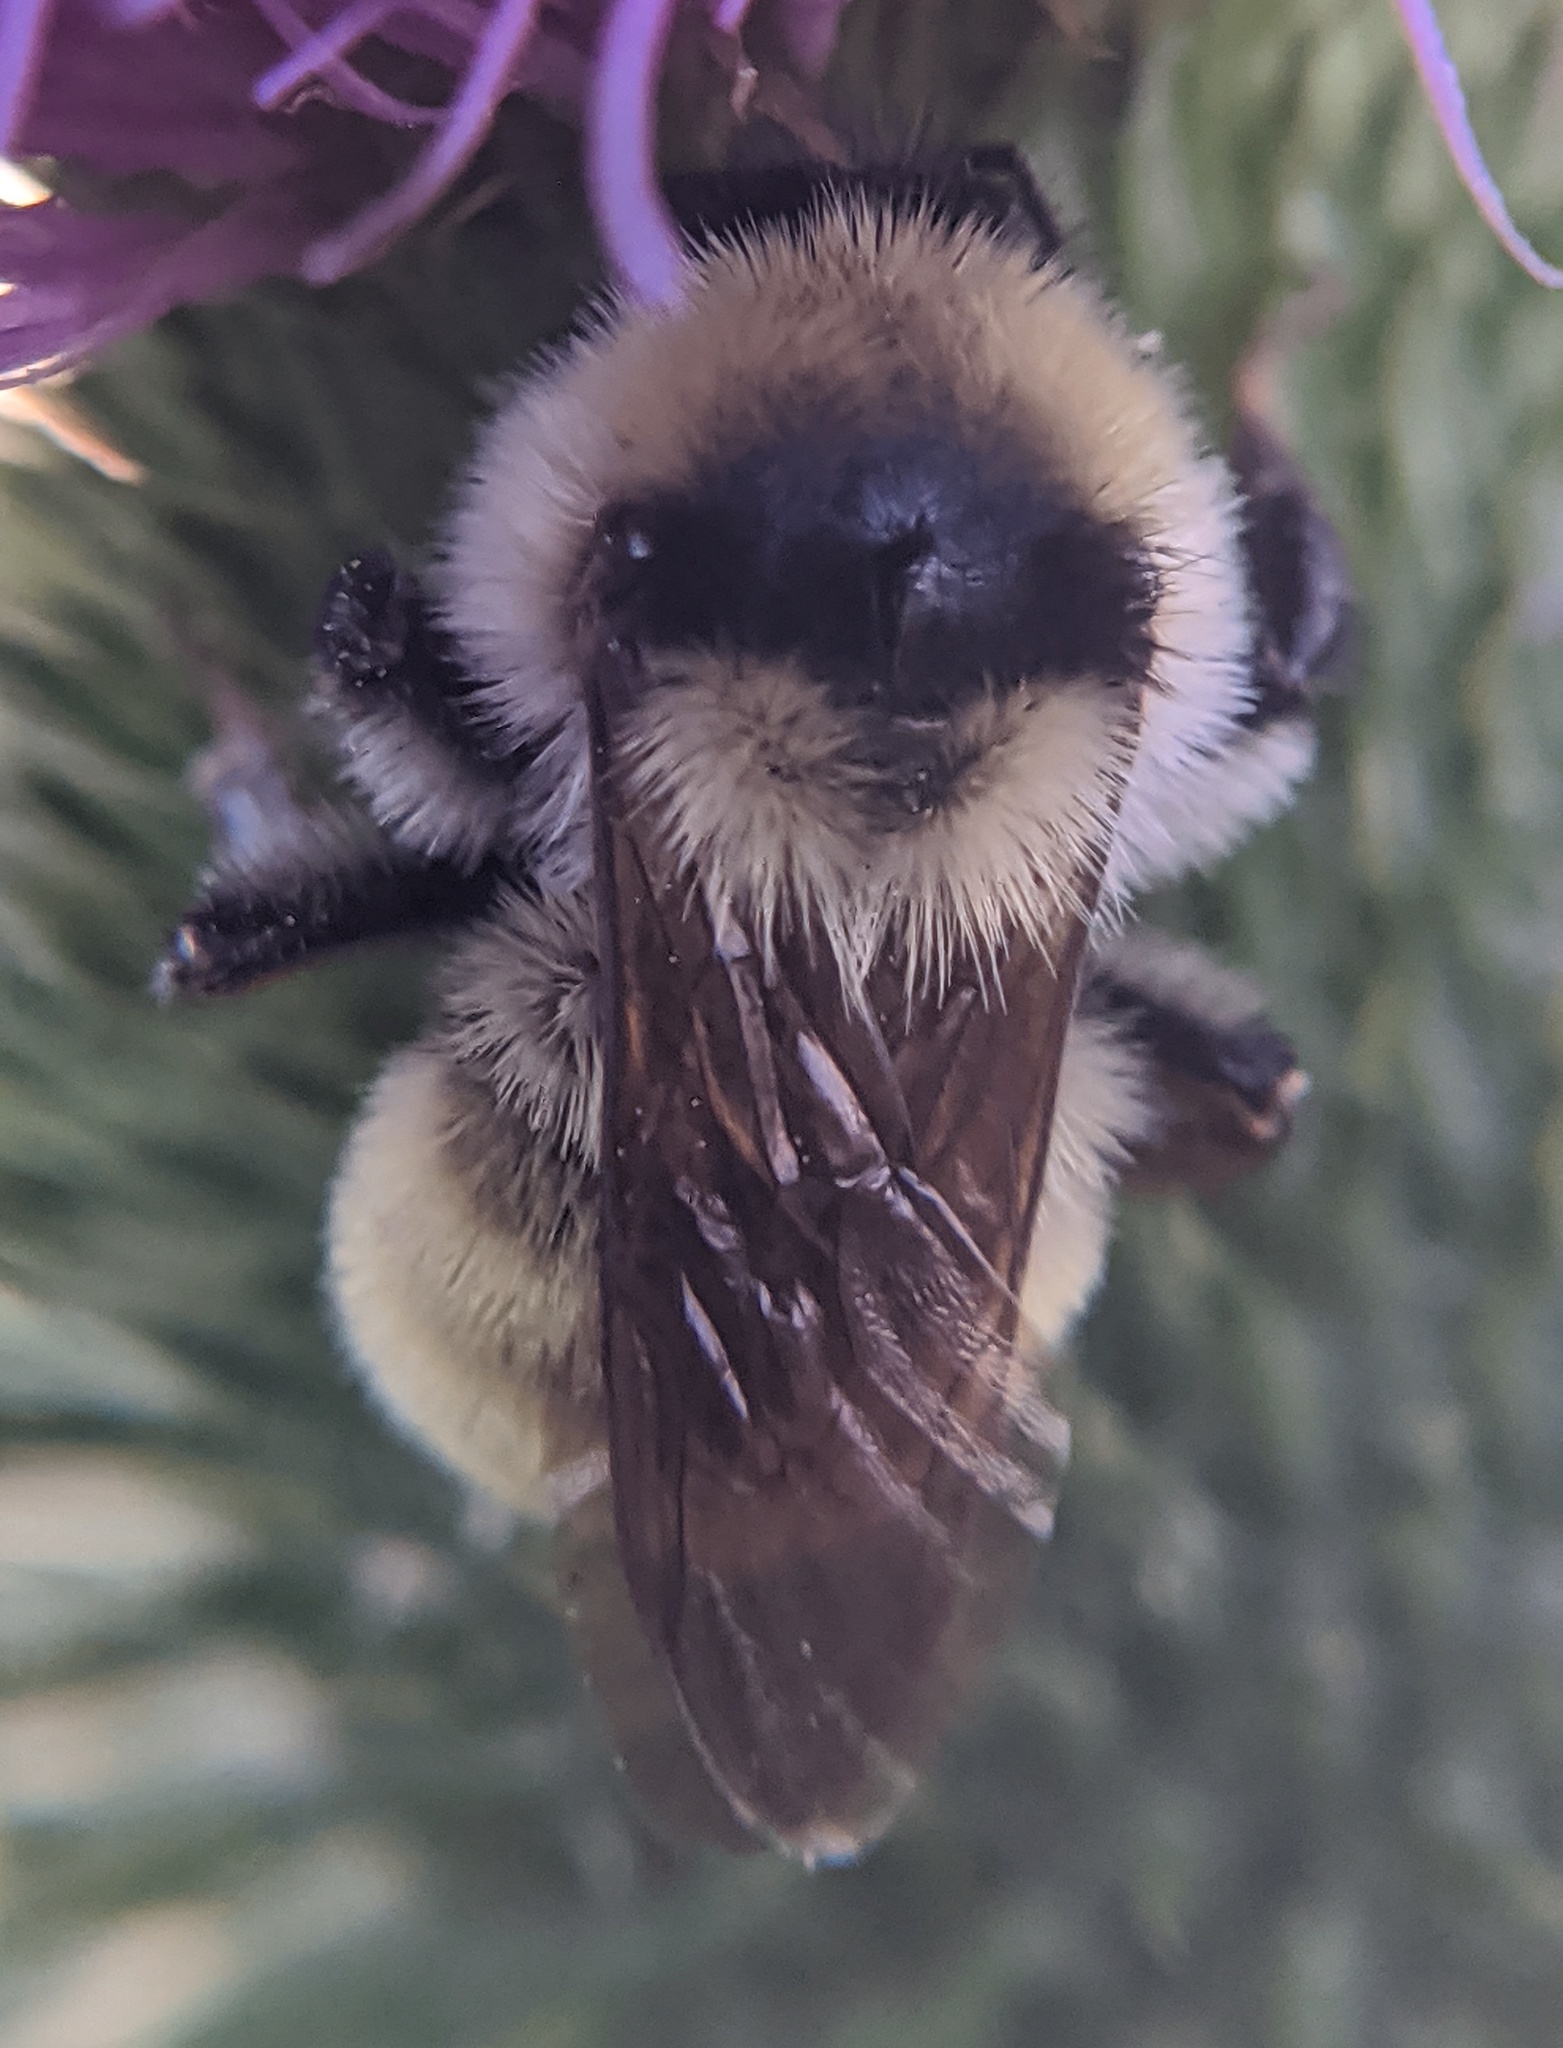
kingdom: Animalia
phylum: Arthropoda
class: Insecta
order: Hymenoptera
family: Apidae
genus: Bombus
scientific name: Bombus fervidus
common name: Yellow bumble bee
